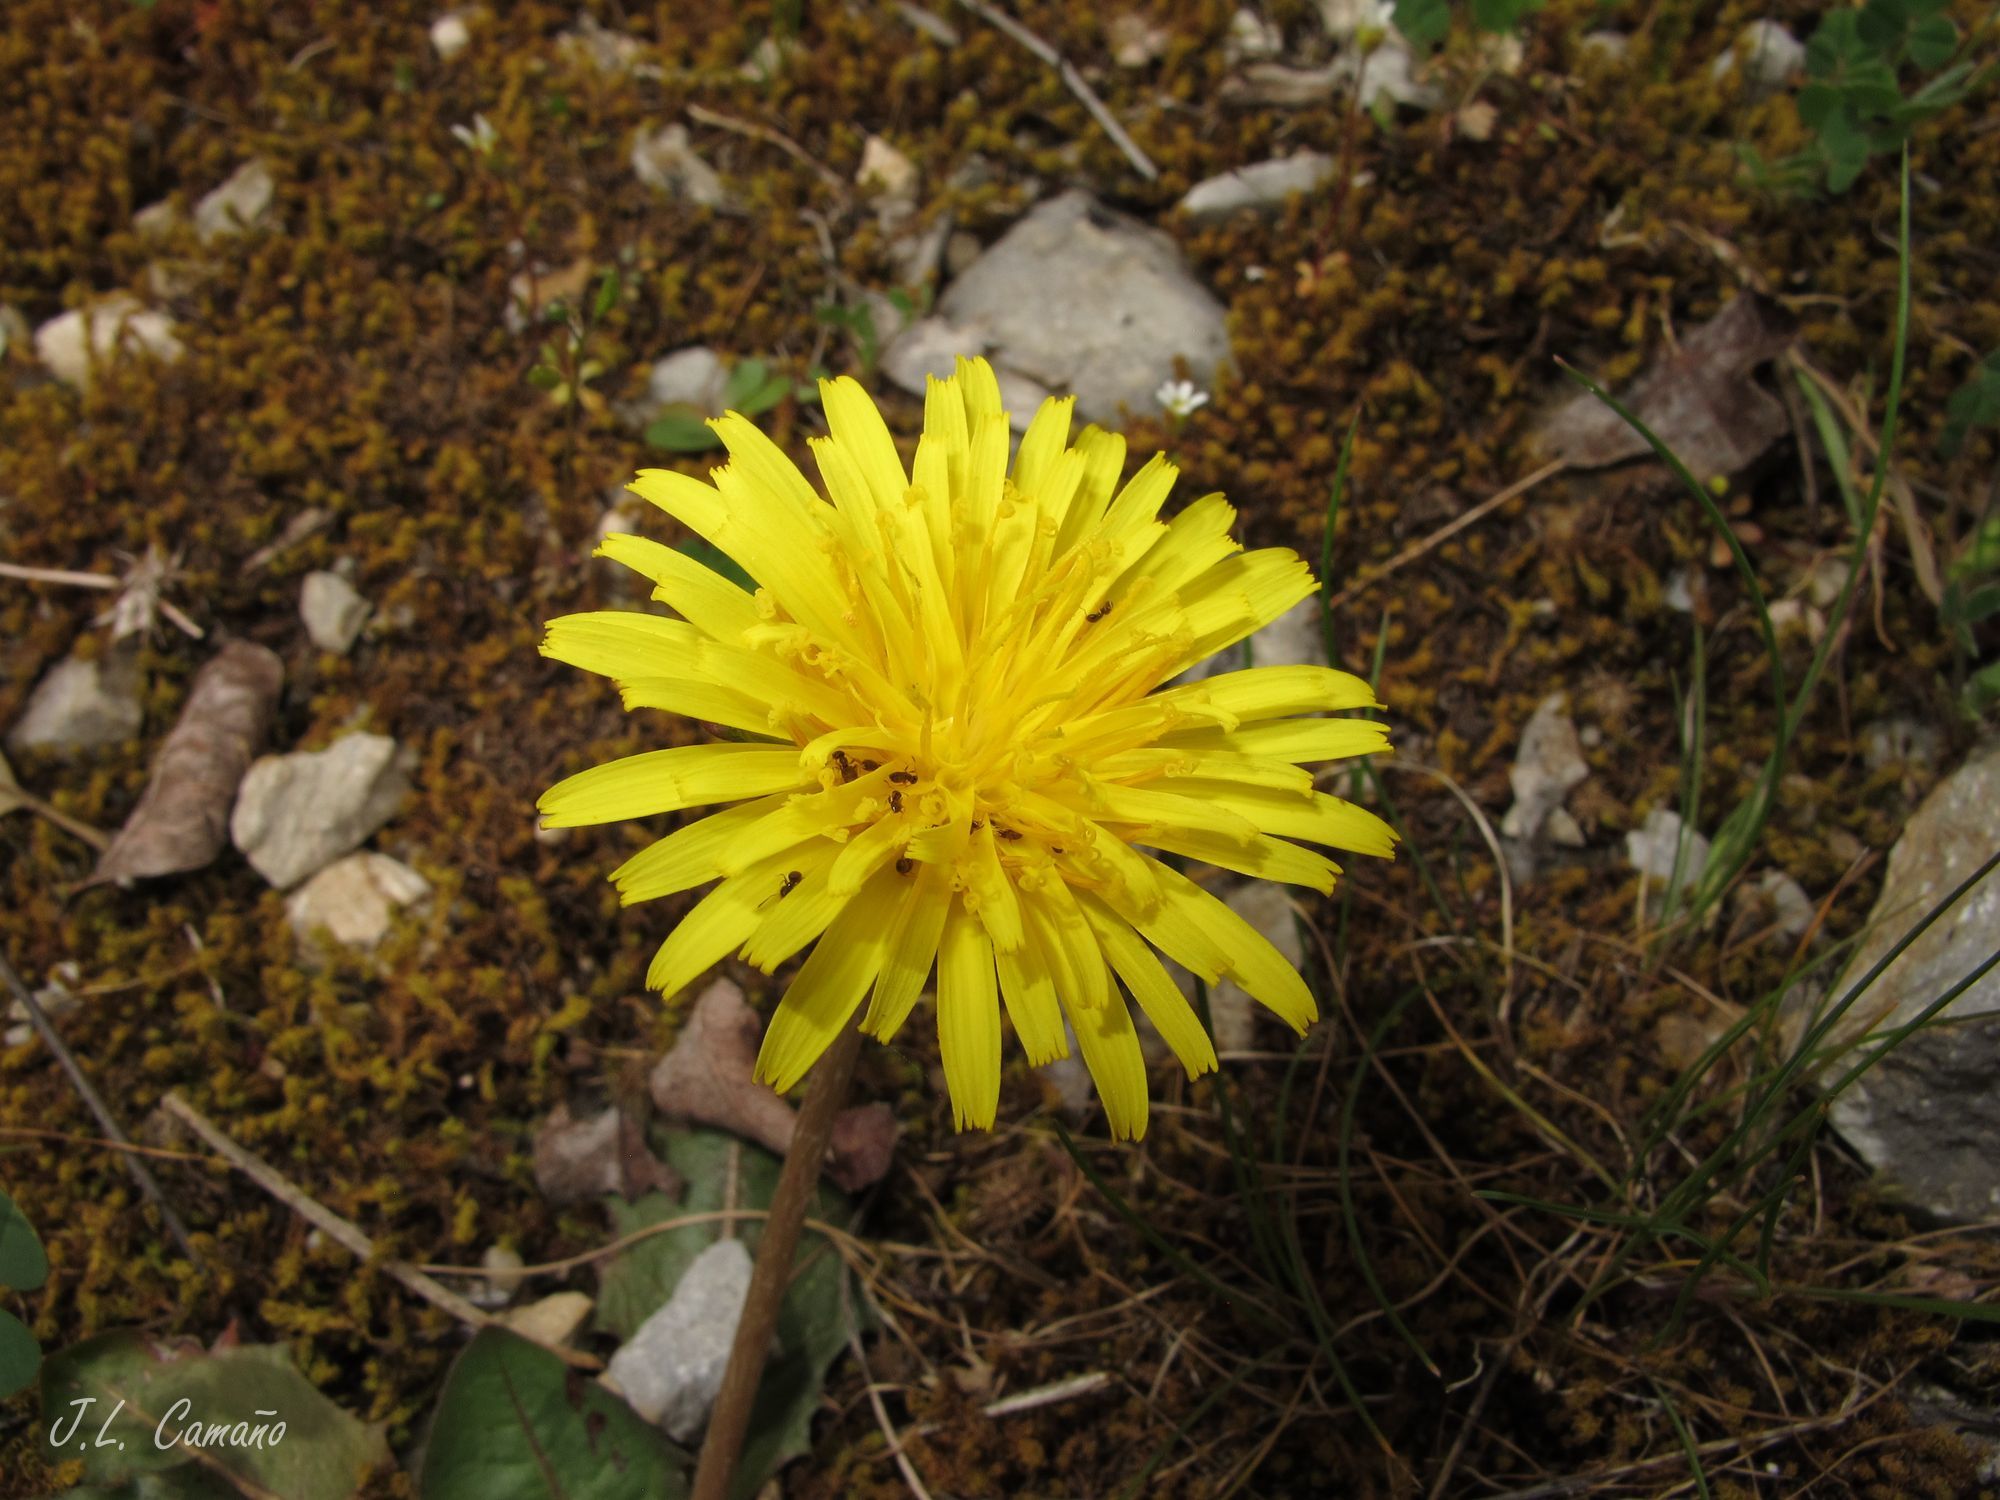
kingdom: Plantae
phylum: Tracheophyta
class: Magnoliopsida
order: Asterales
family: Asteraceae
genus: Taraxacum
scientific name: Taraxacum obovatum
